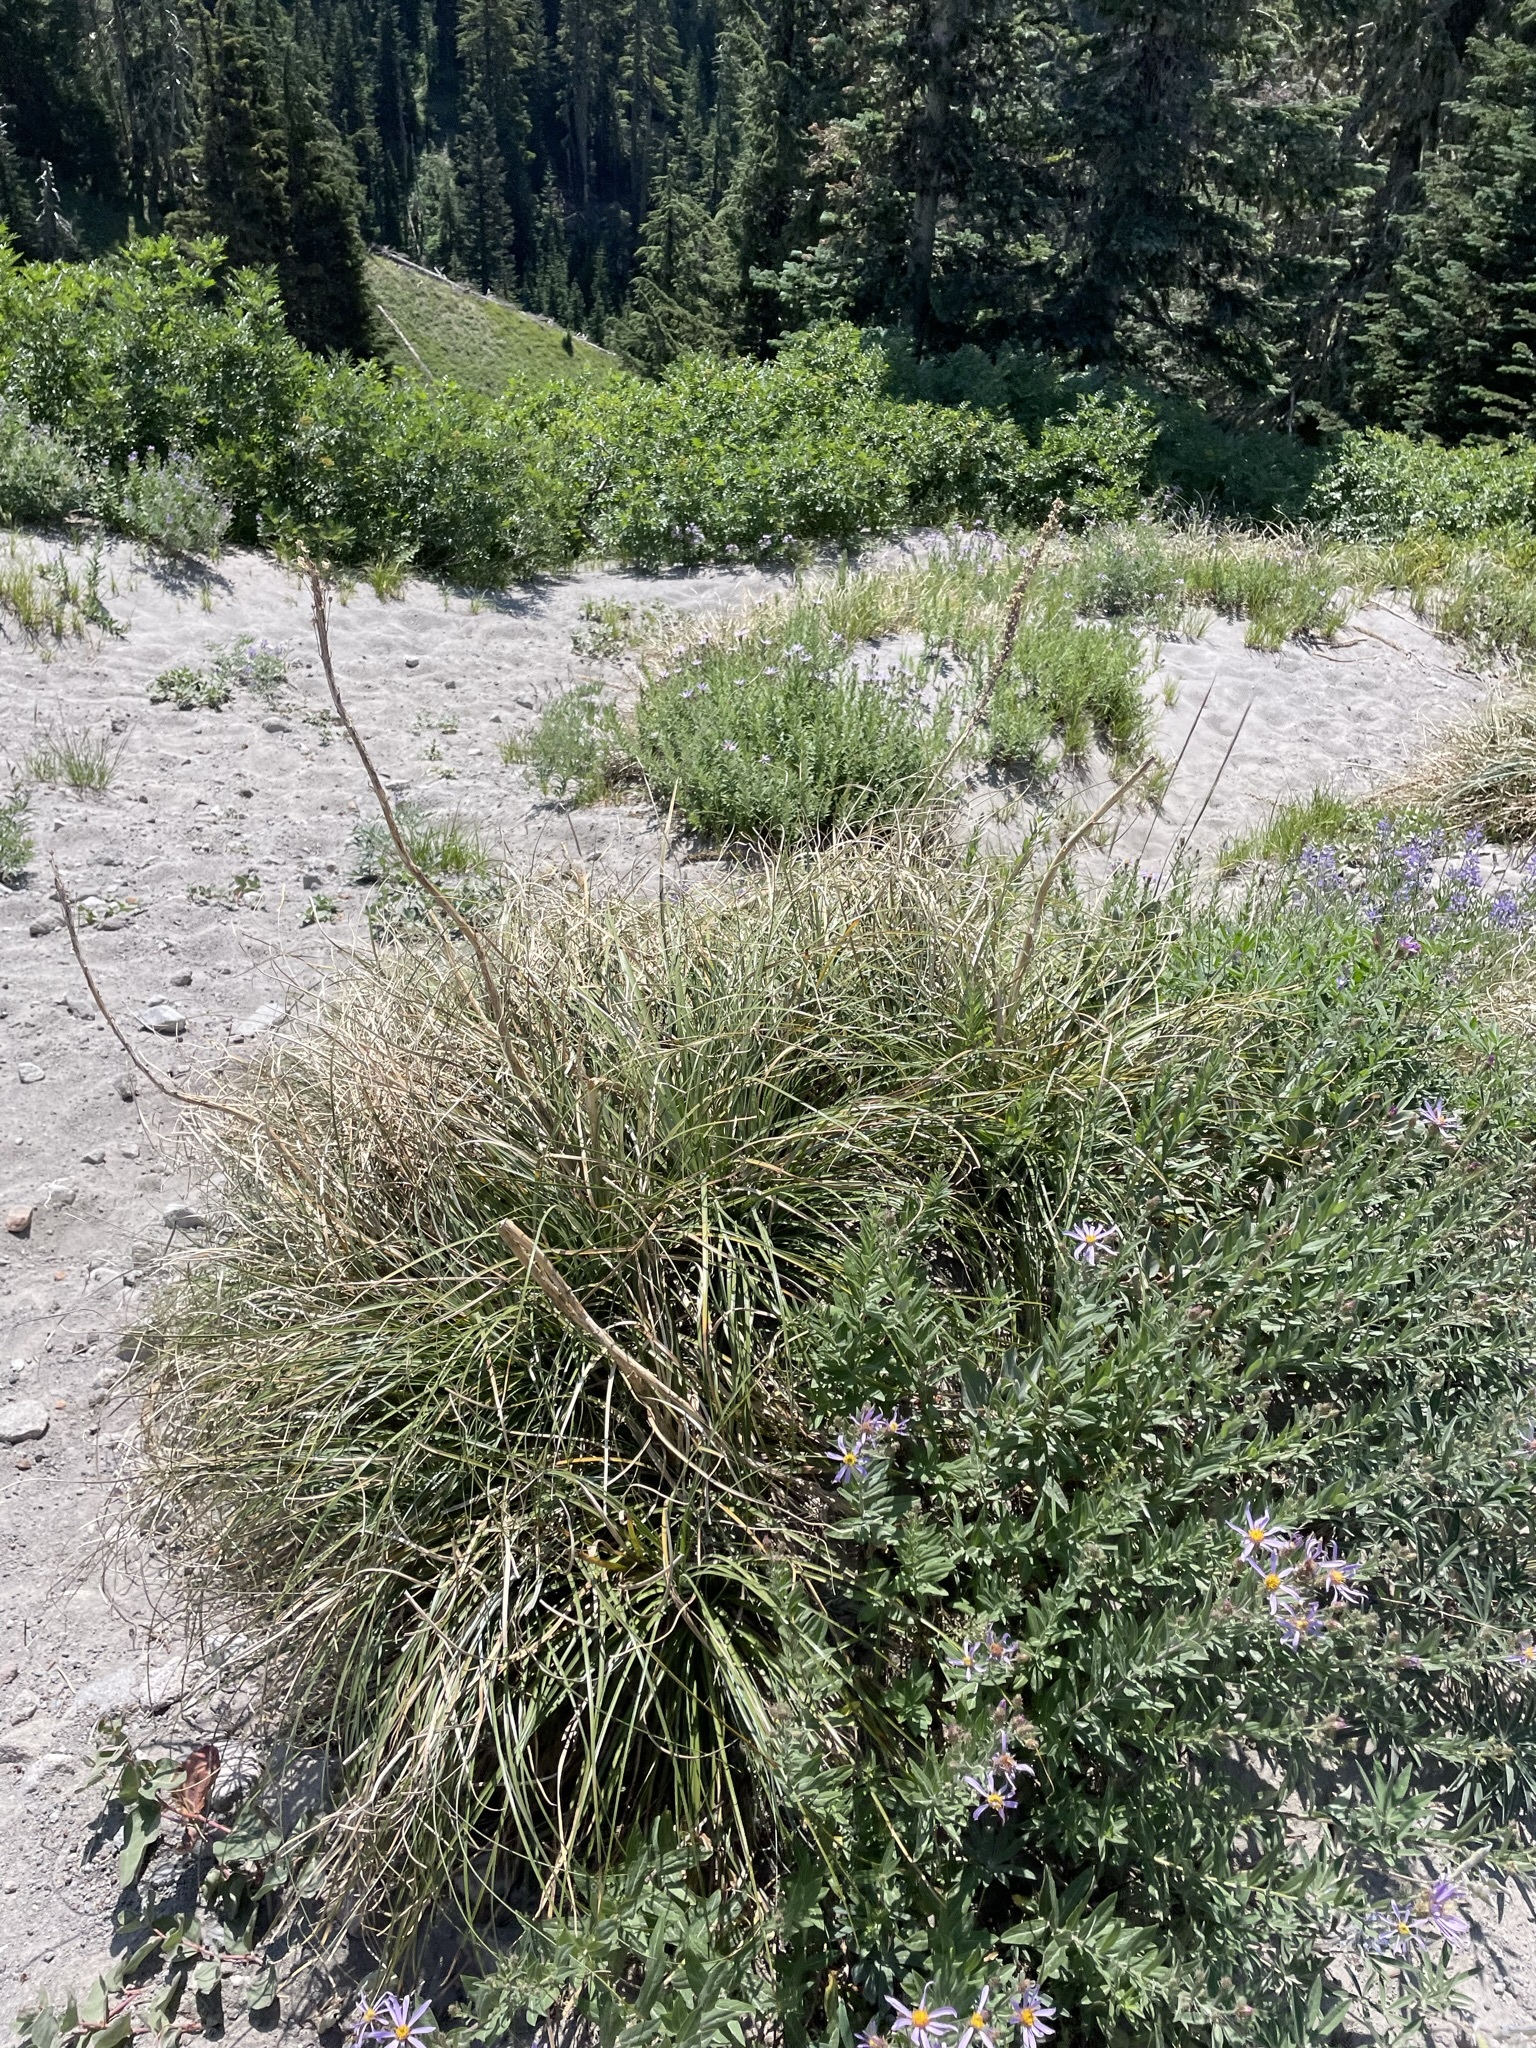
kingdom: Plantae
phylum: Tracheophyta
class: Liliopsida
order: Liliales
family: Melanthiaceae
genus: Xerophyllum
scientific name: Xerophyllum tenax
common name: Bear-grass
